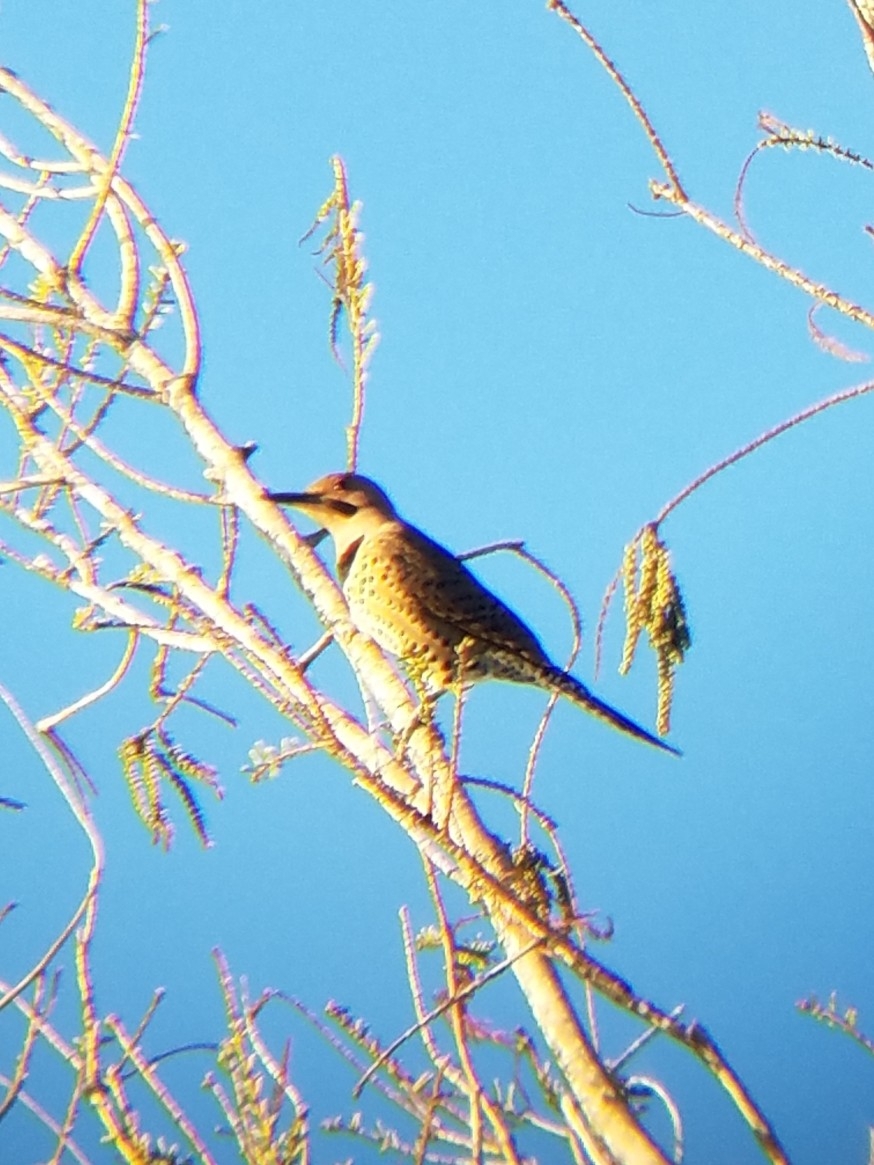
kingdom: Animalia
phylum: Chordata
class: Aves
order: Piciformes
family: Picidae
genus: Colaptes
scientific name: Colaptes auratus
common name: Northern flicker
